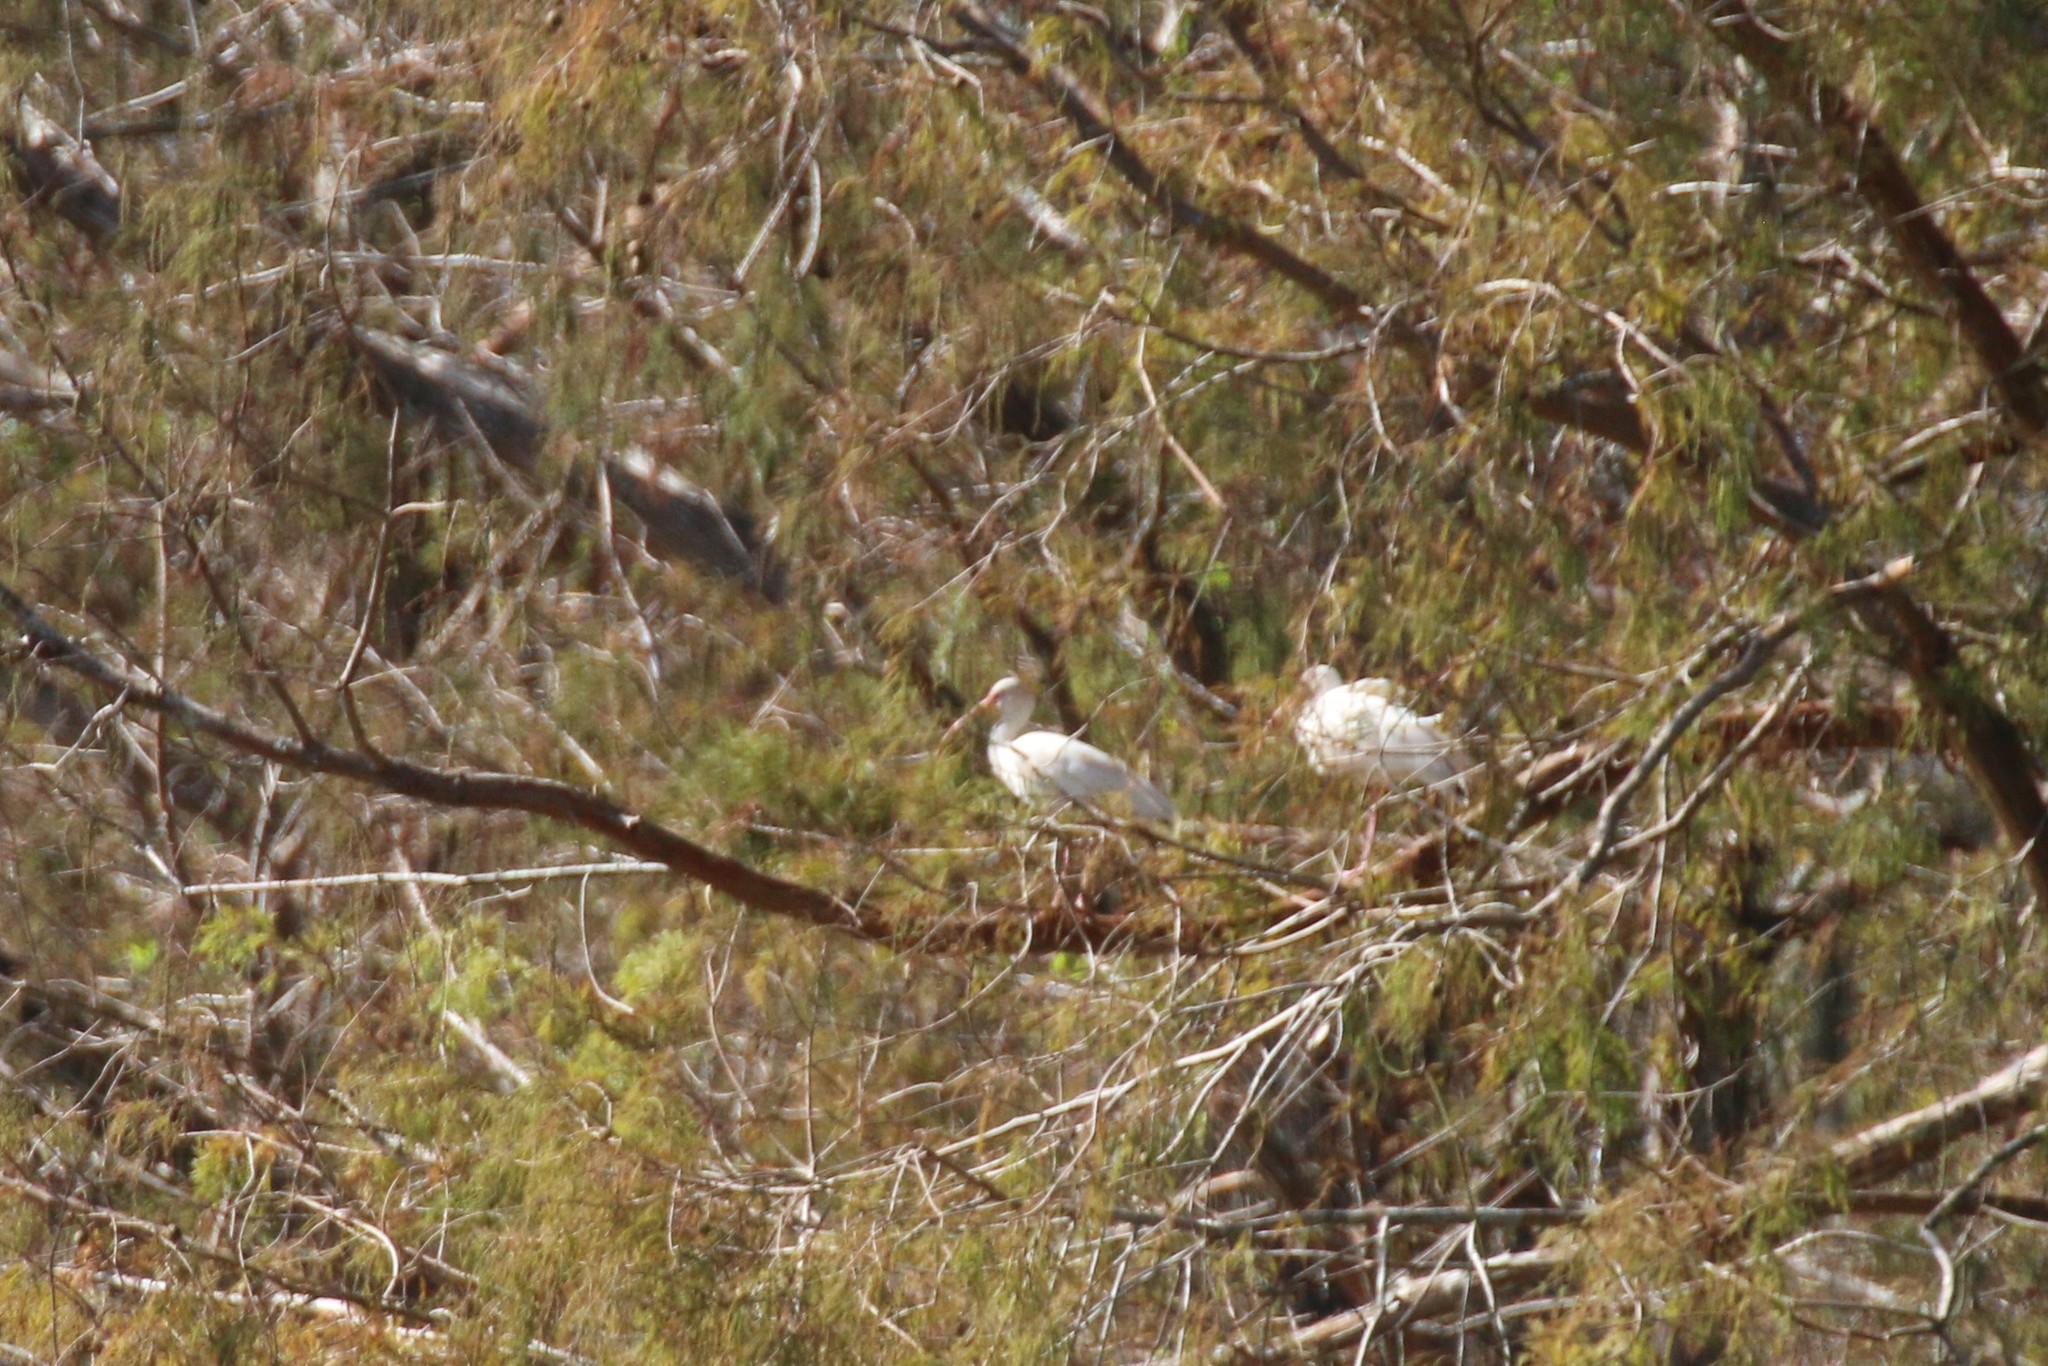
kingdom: Animalia
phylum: Chordata
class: Aves
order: Pelecaniformes
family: Threskiornithidae
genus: Eudocimus
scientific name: Eudocimus albus
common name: White ibis
